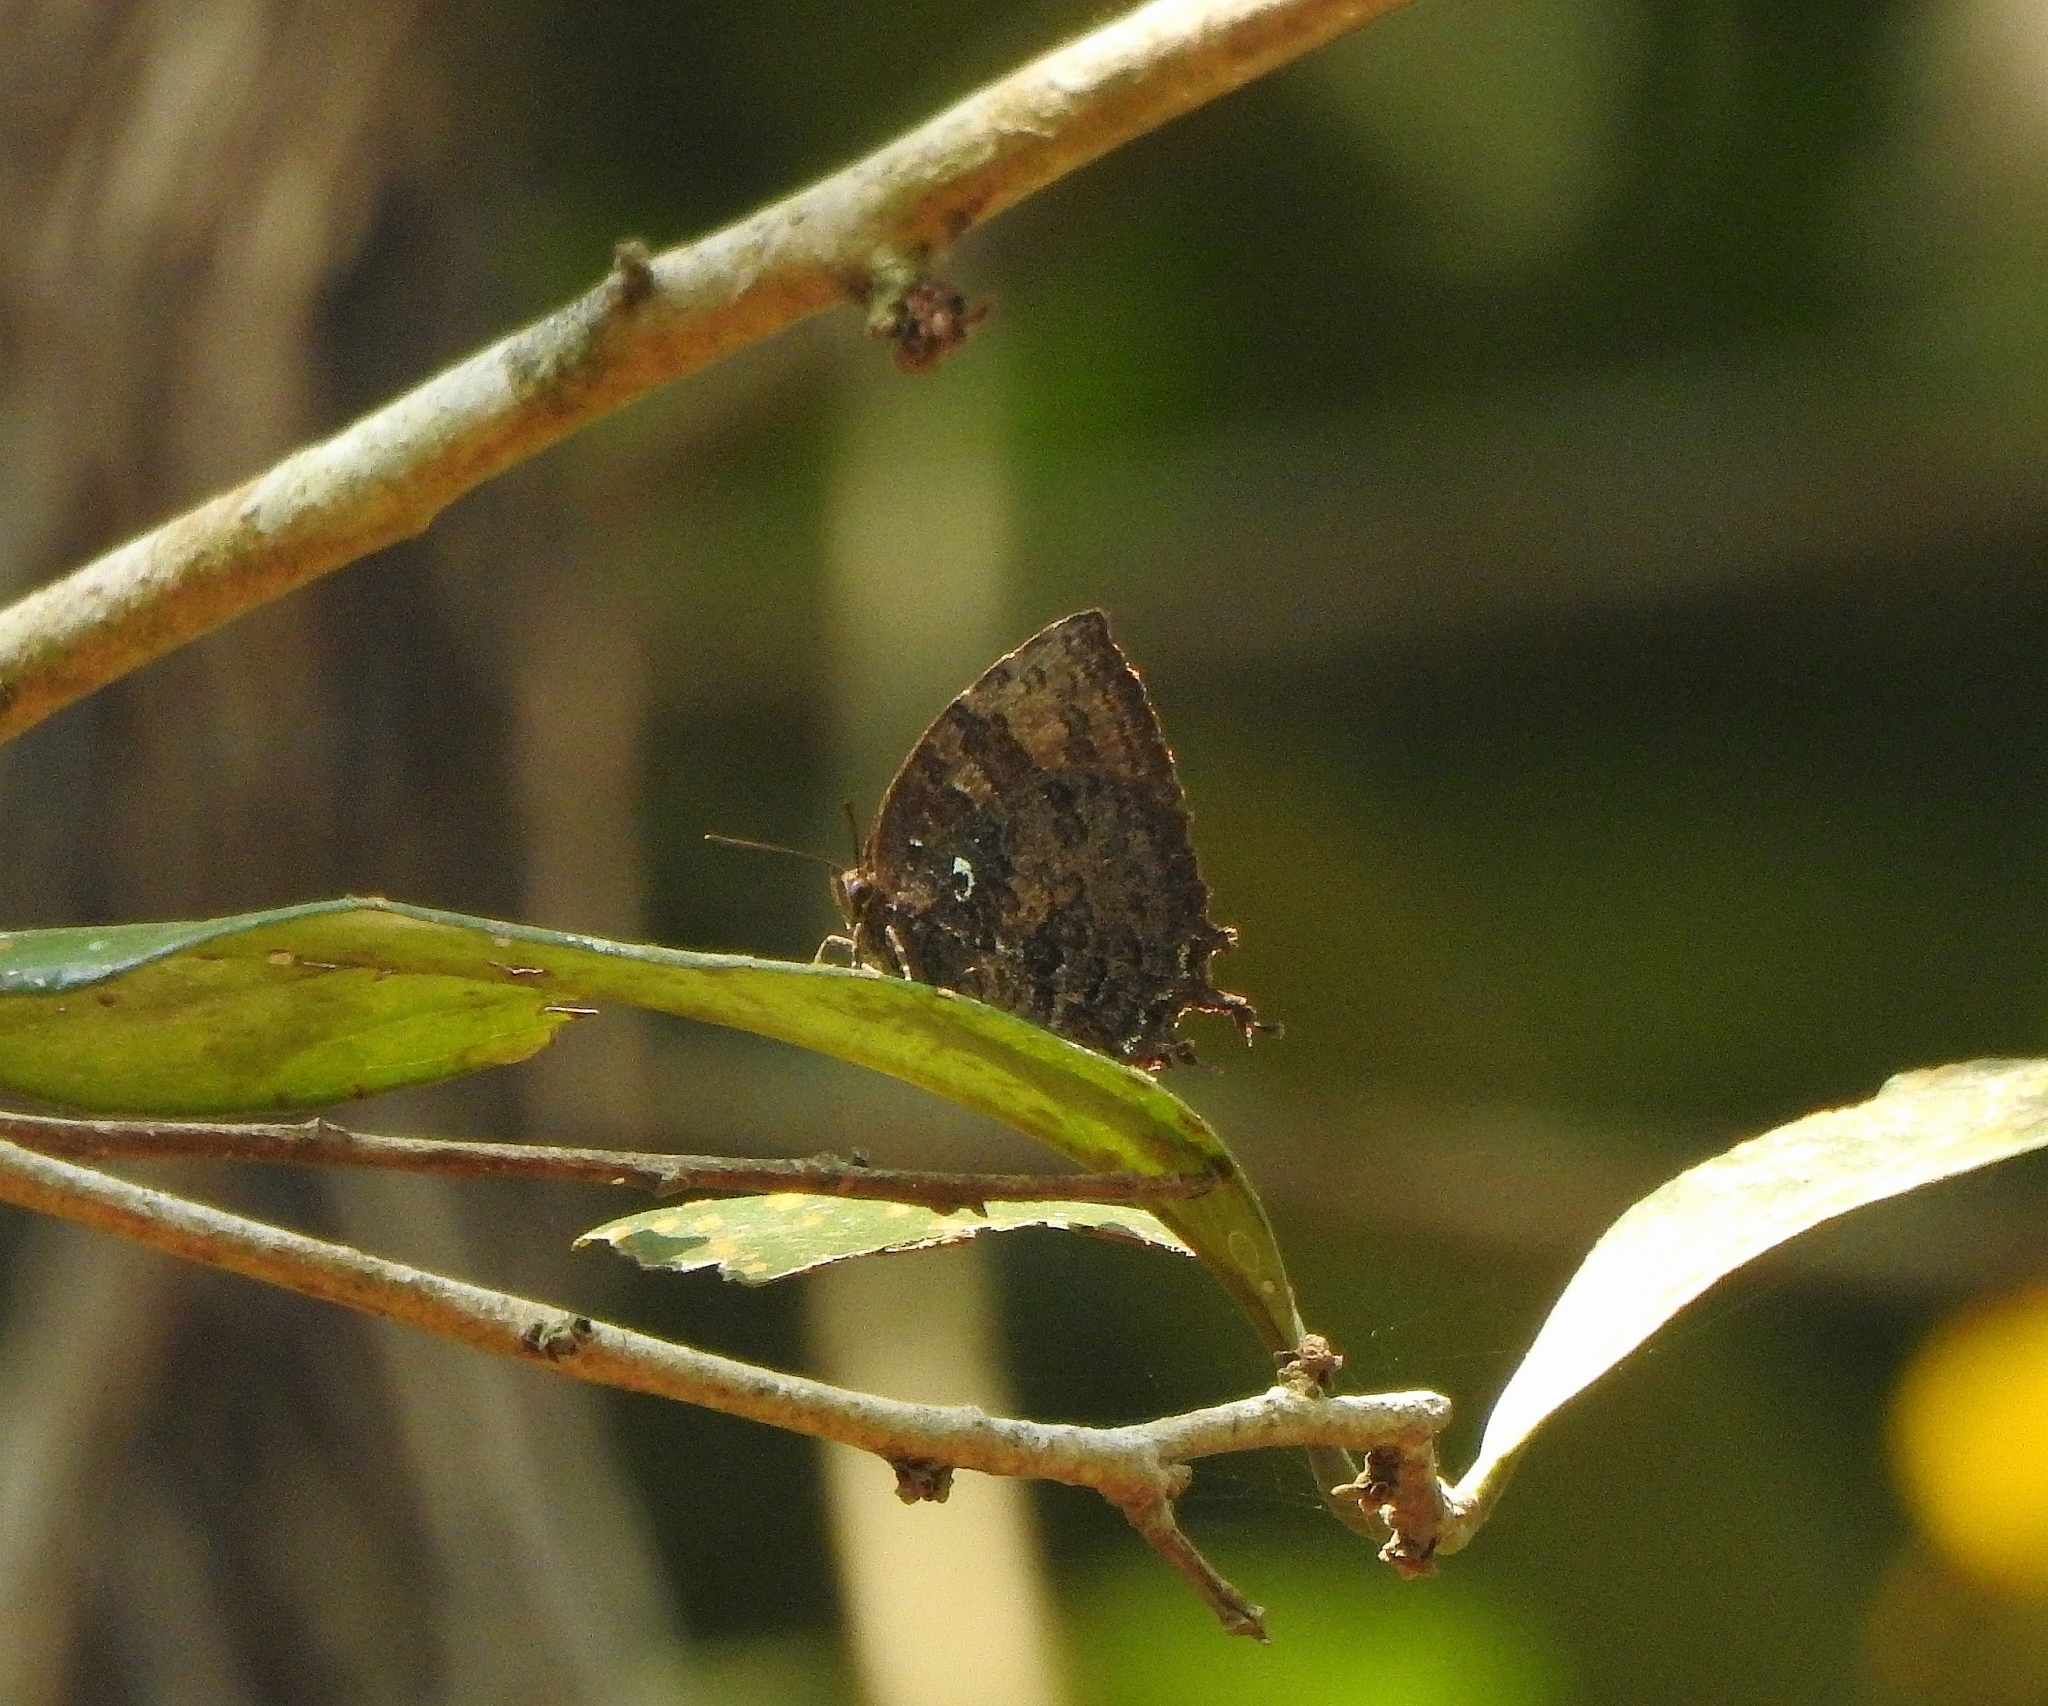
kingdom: Animalia
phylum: Arthropoda
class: Insecta
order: Lepidoptera
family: Lycaenidae
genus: Thaduka
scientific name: Thaduka multicaudata
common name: Many-tailed oakblue
